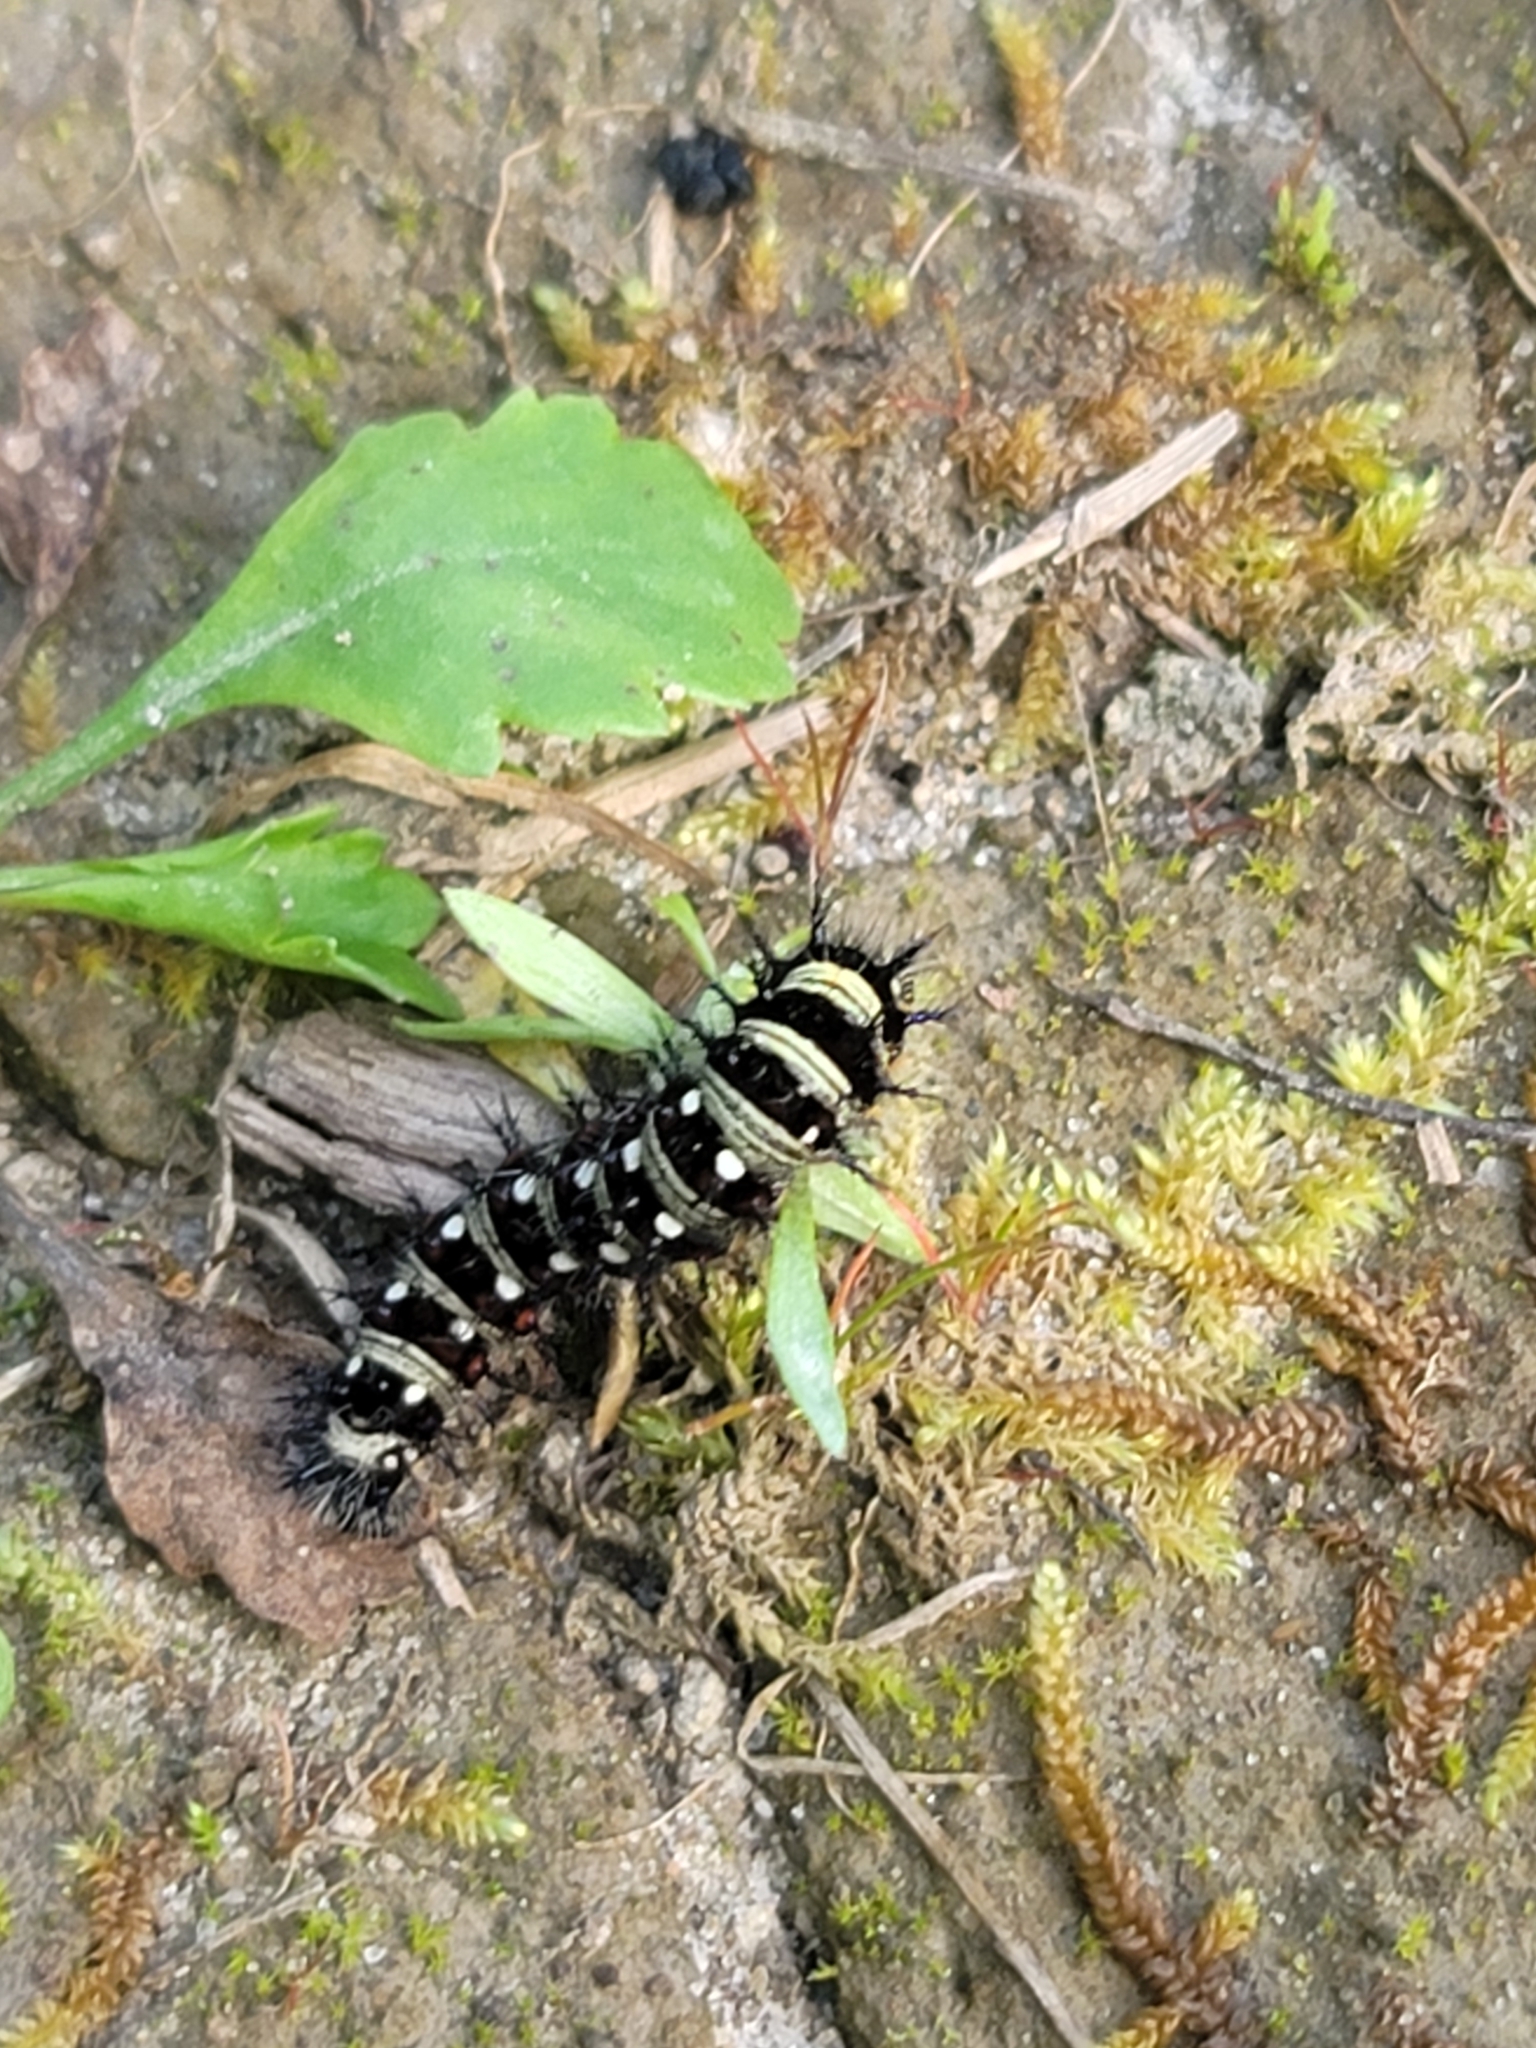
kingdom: Animalia
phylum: Arthropoda
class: Insecta
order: Lepidoptera
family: Nymphalidae
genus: Vanessa
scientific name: Vanessa virginiensis
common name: American lady
